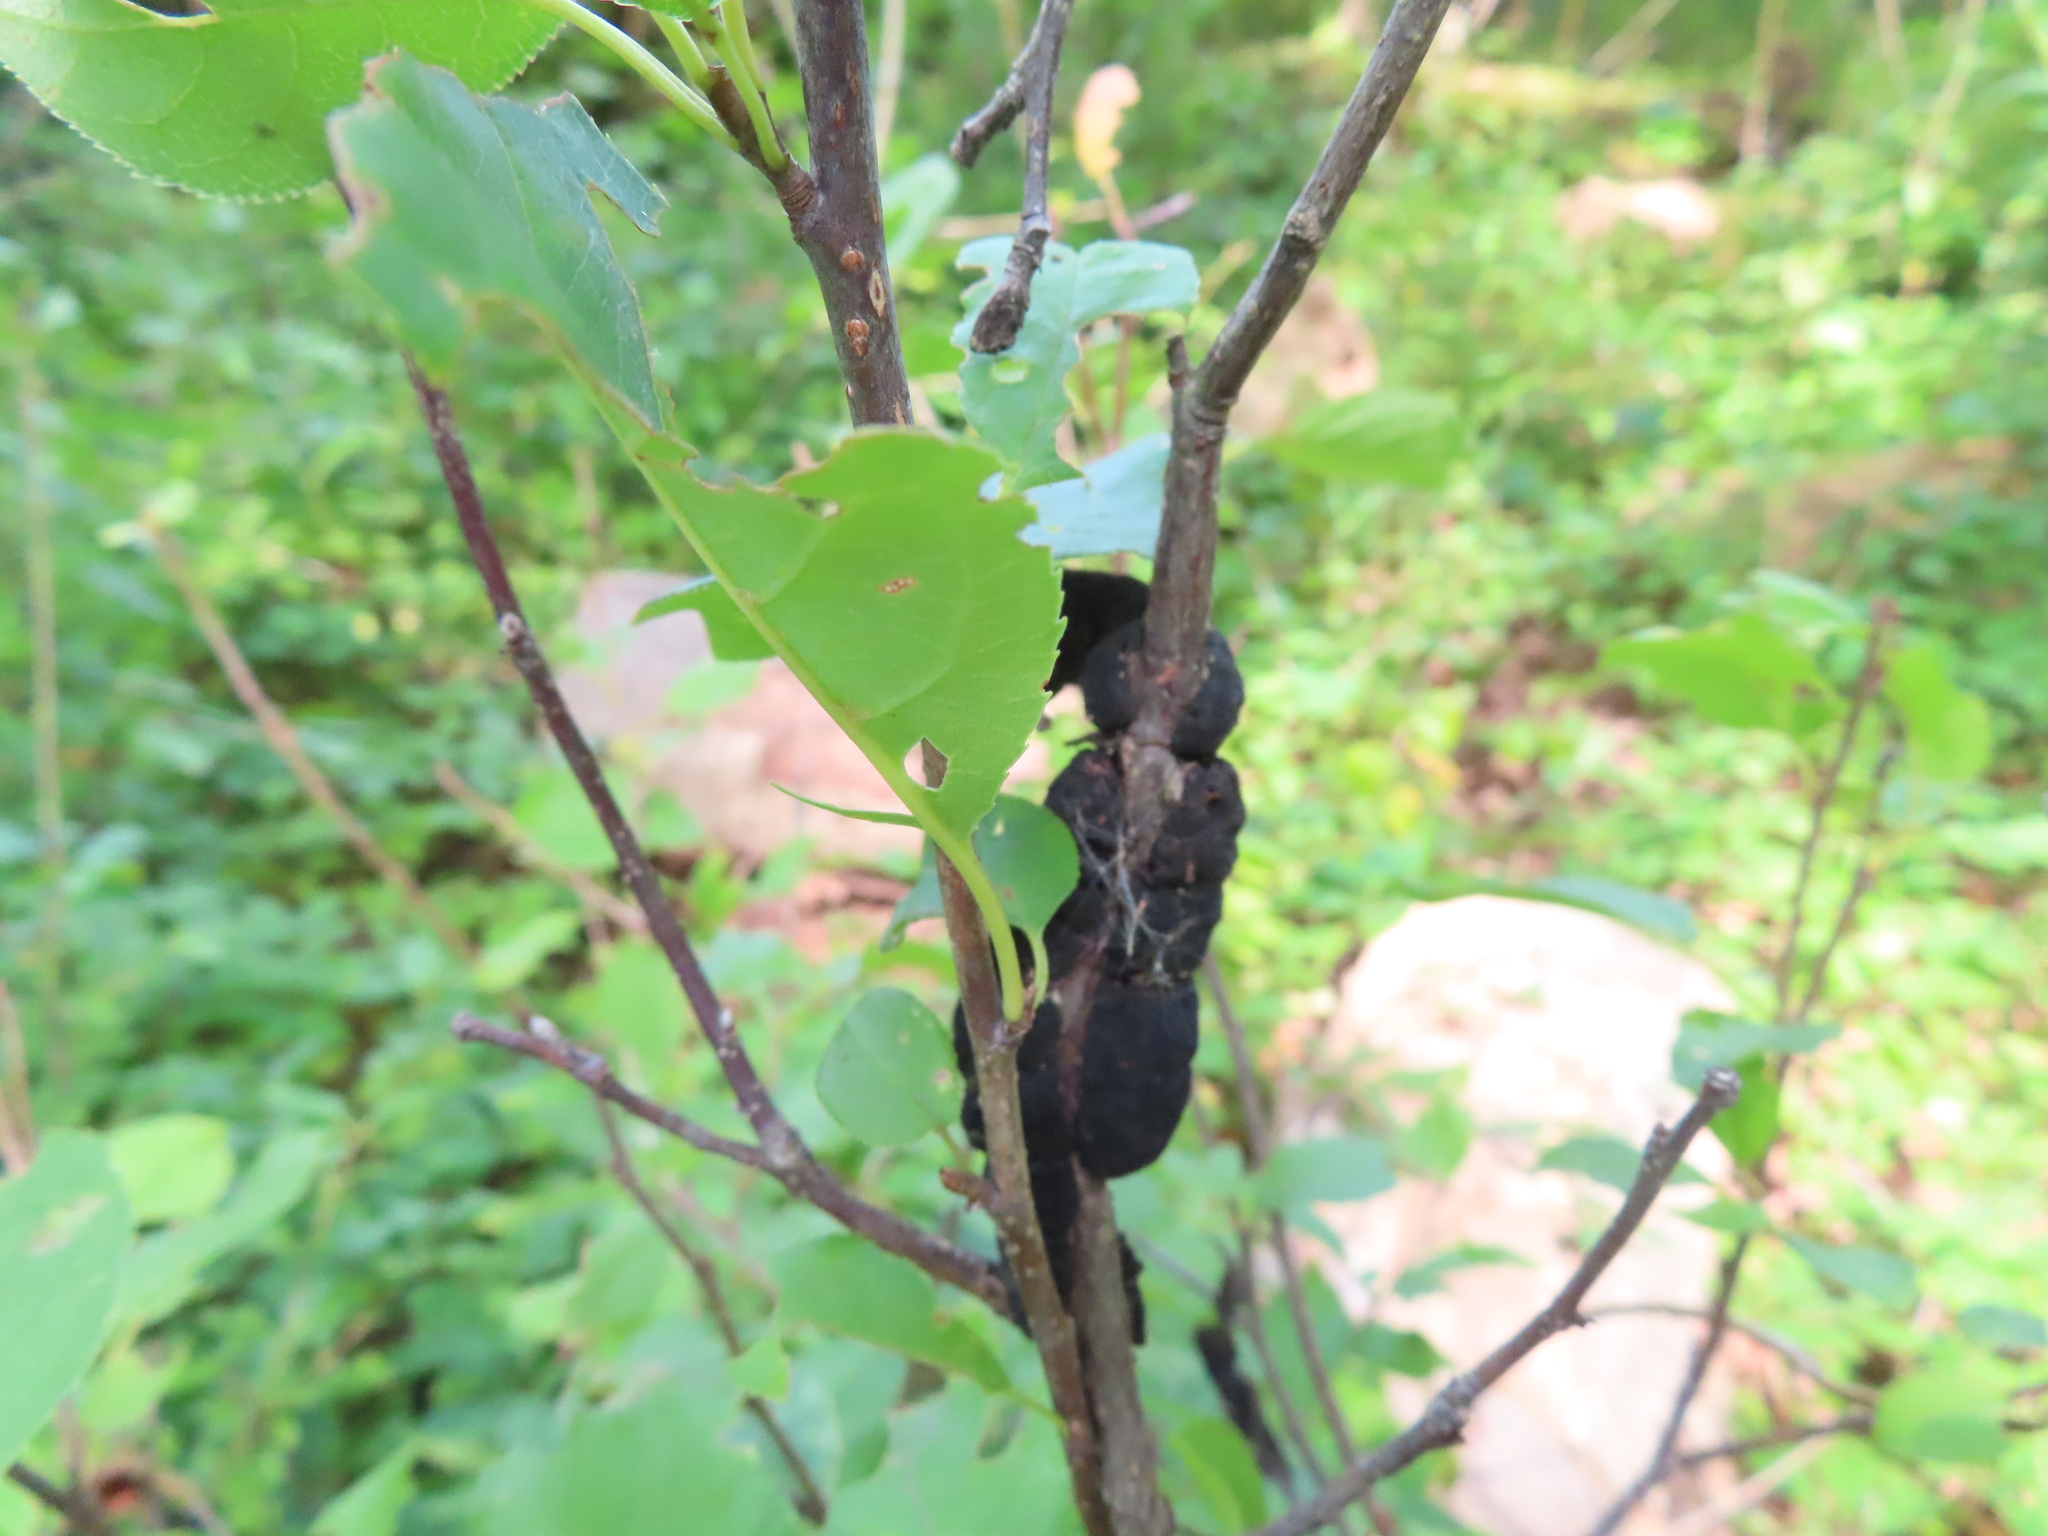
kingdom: Fungi
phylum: Ascomycota
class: Dothideomycetes
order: Venturiales
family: Venturiaceae
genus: Apiosporina
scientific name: Apiosporina morbosa
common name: Black knot
